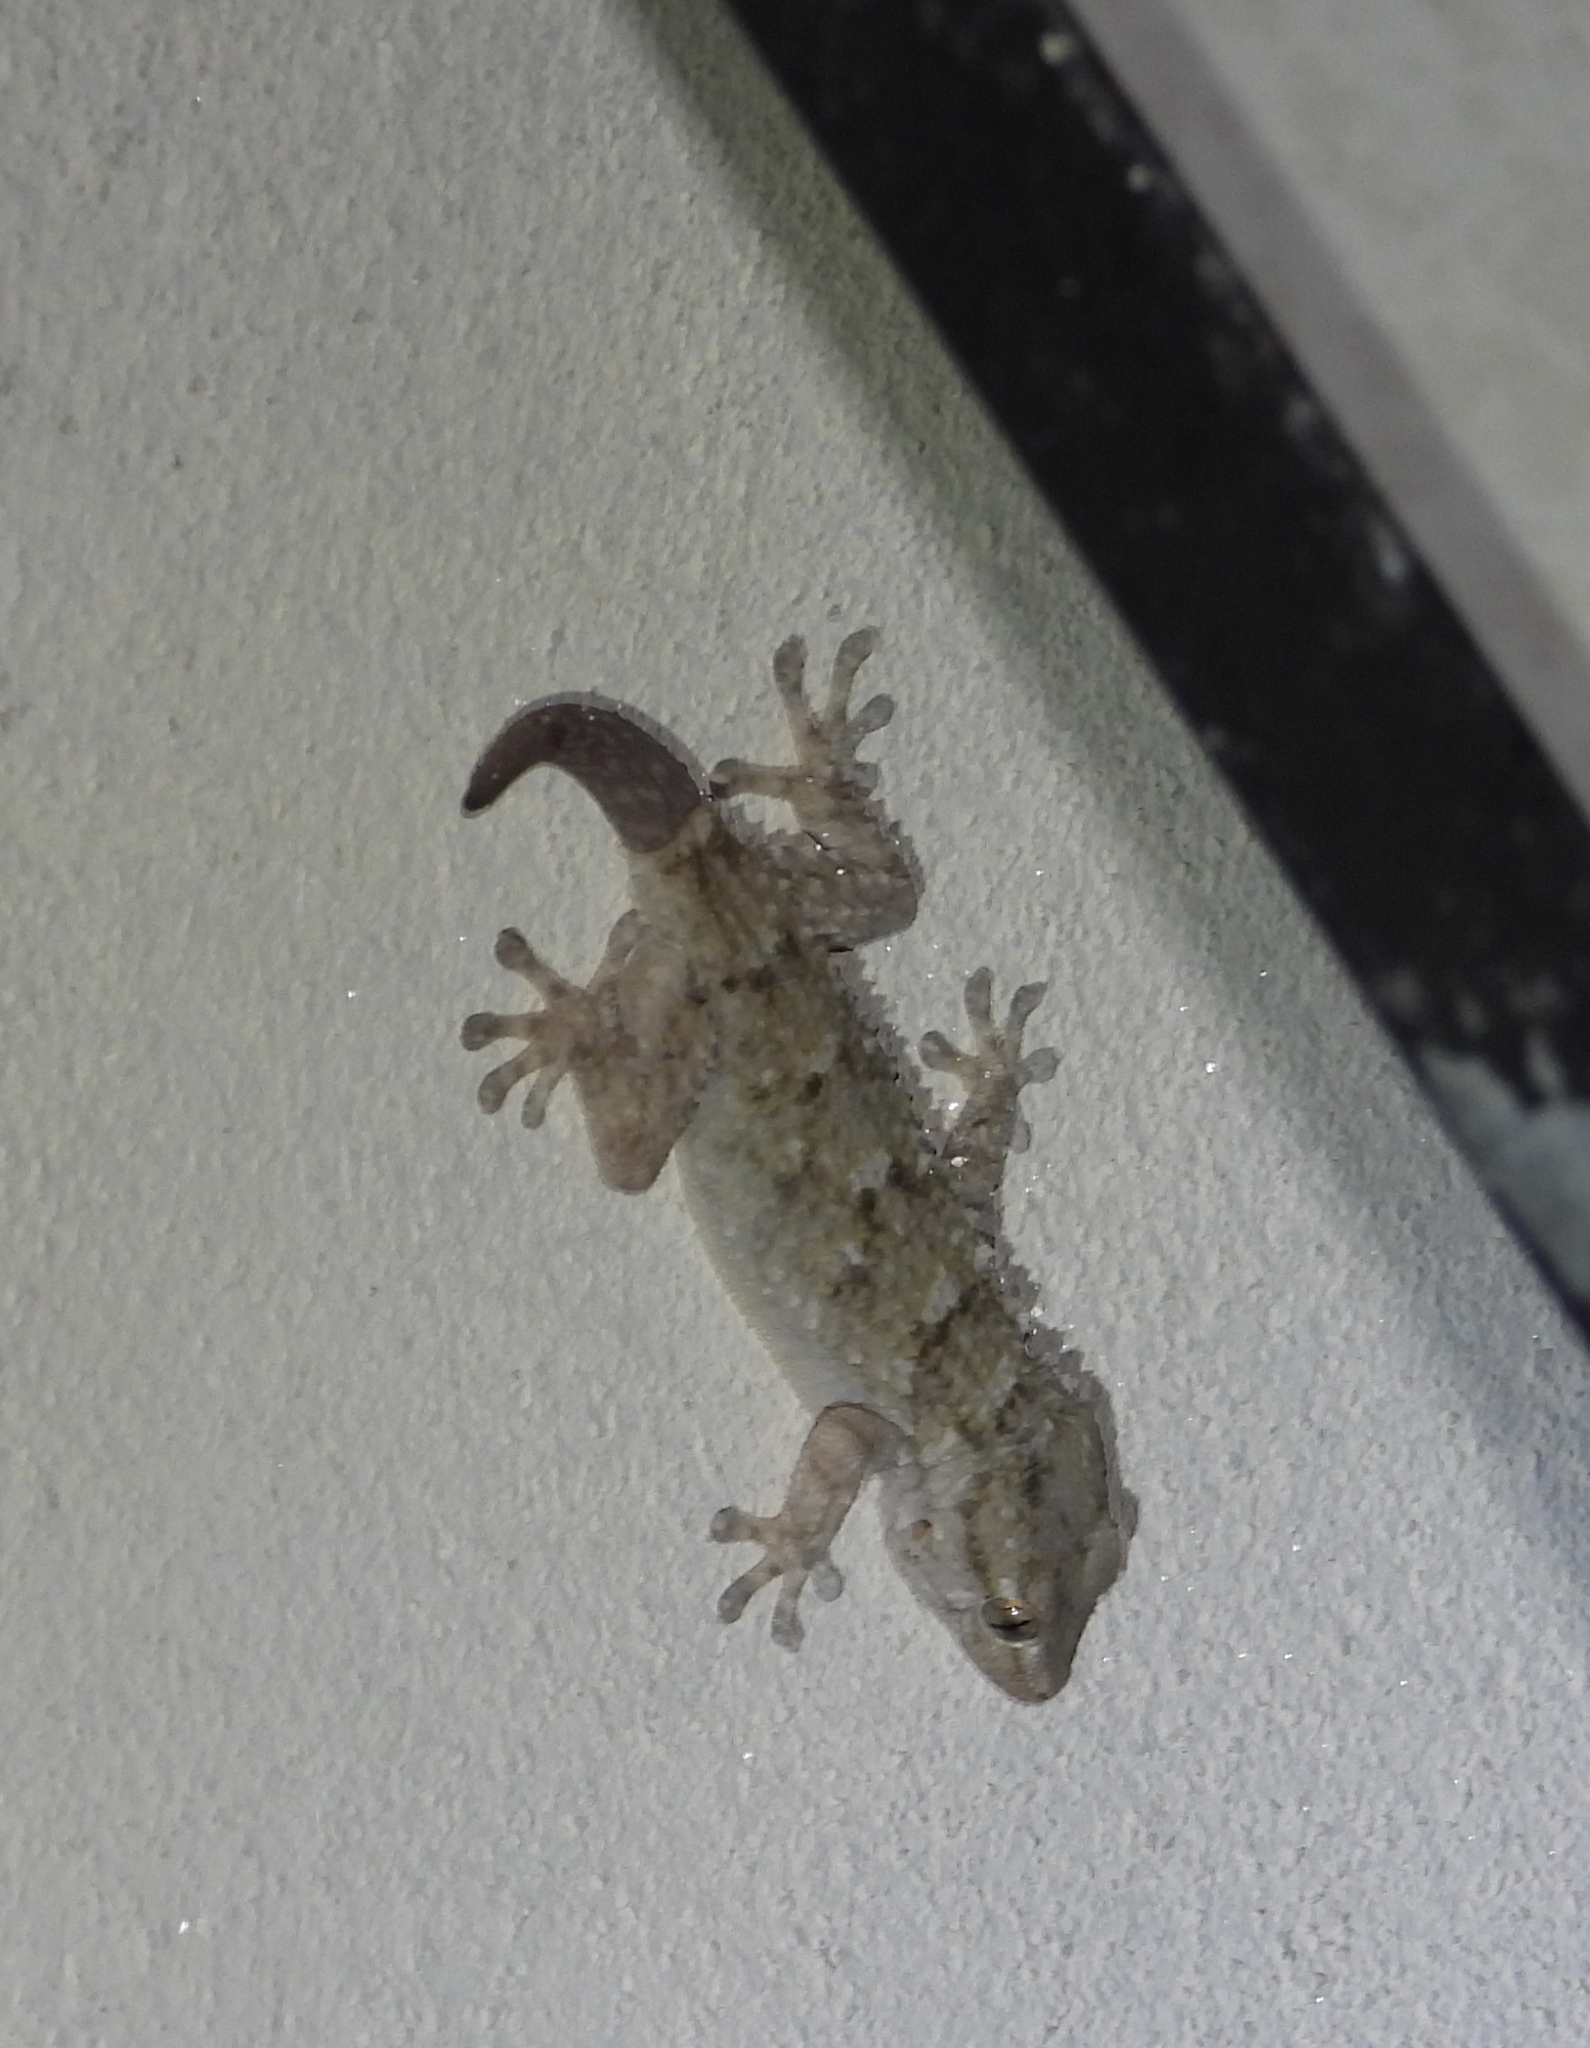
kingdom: Animalia
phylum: Chordata
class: Squamata
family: Phyllodactylidae
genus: Tarentola
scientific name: Tarentola mauritanica
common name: Moorish gecko
